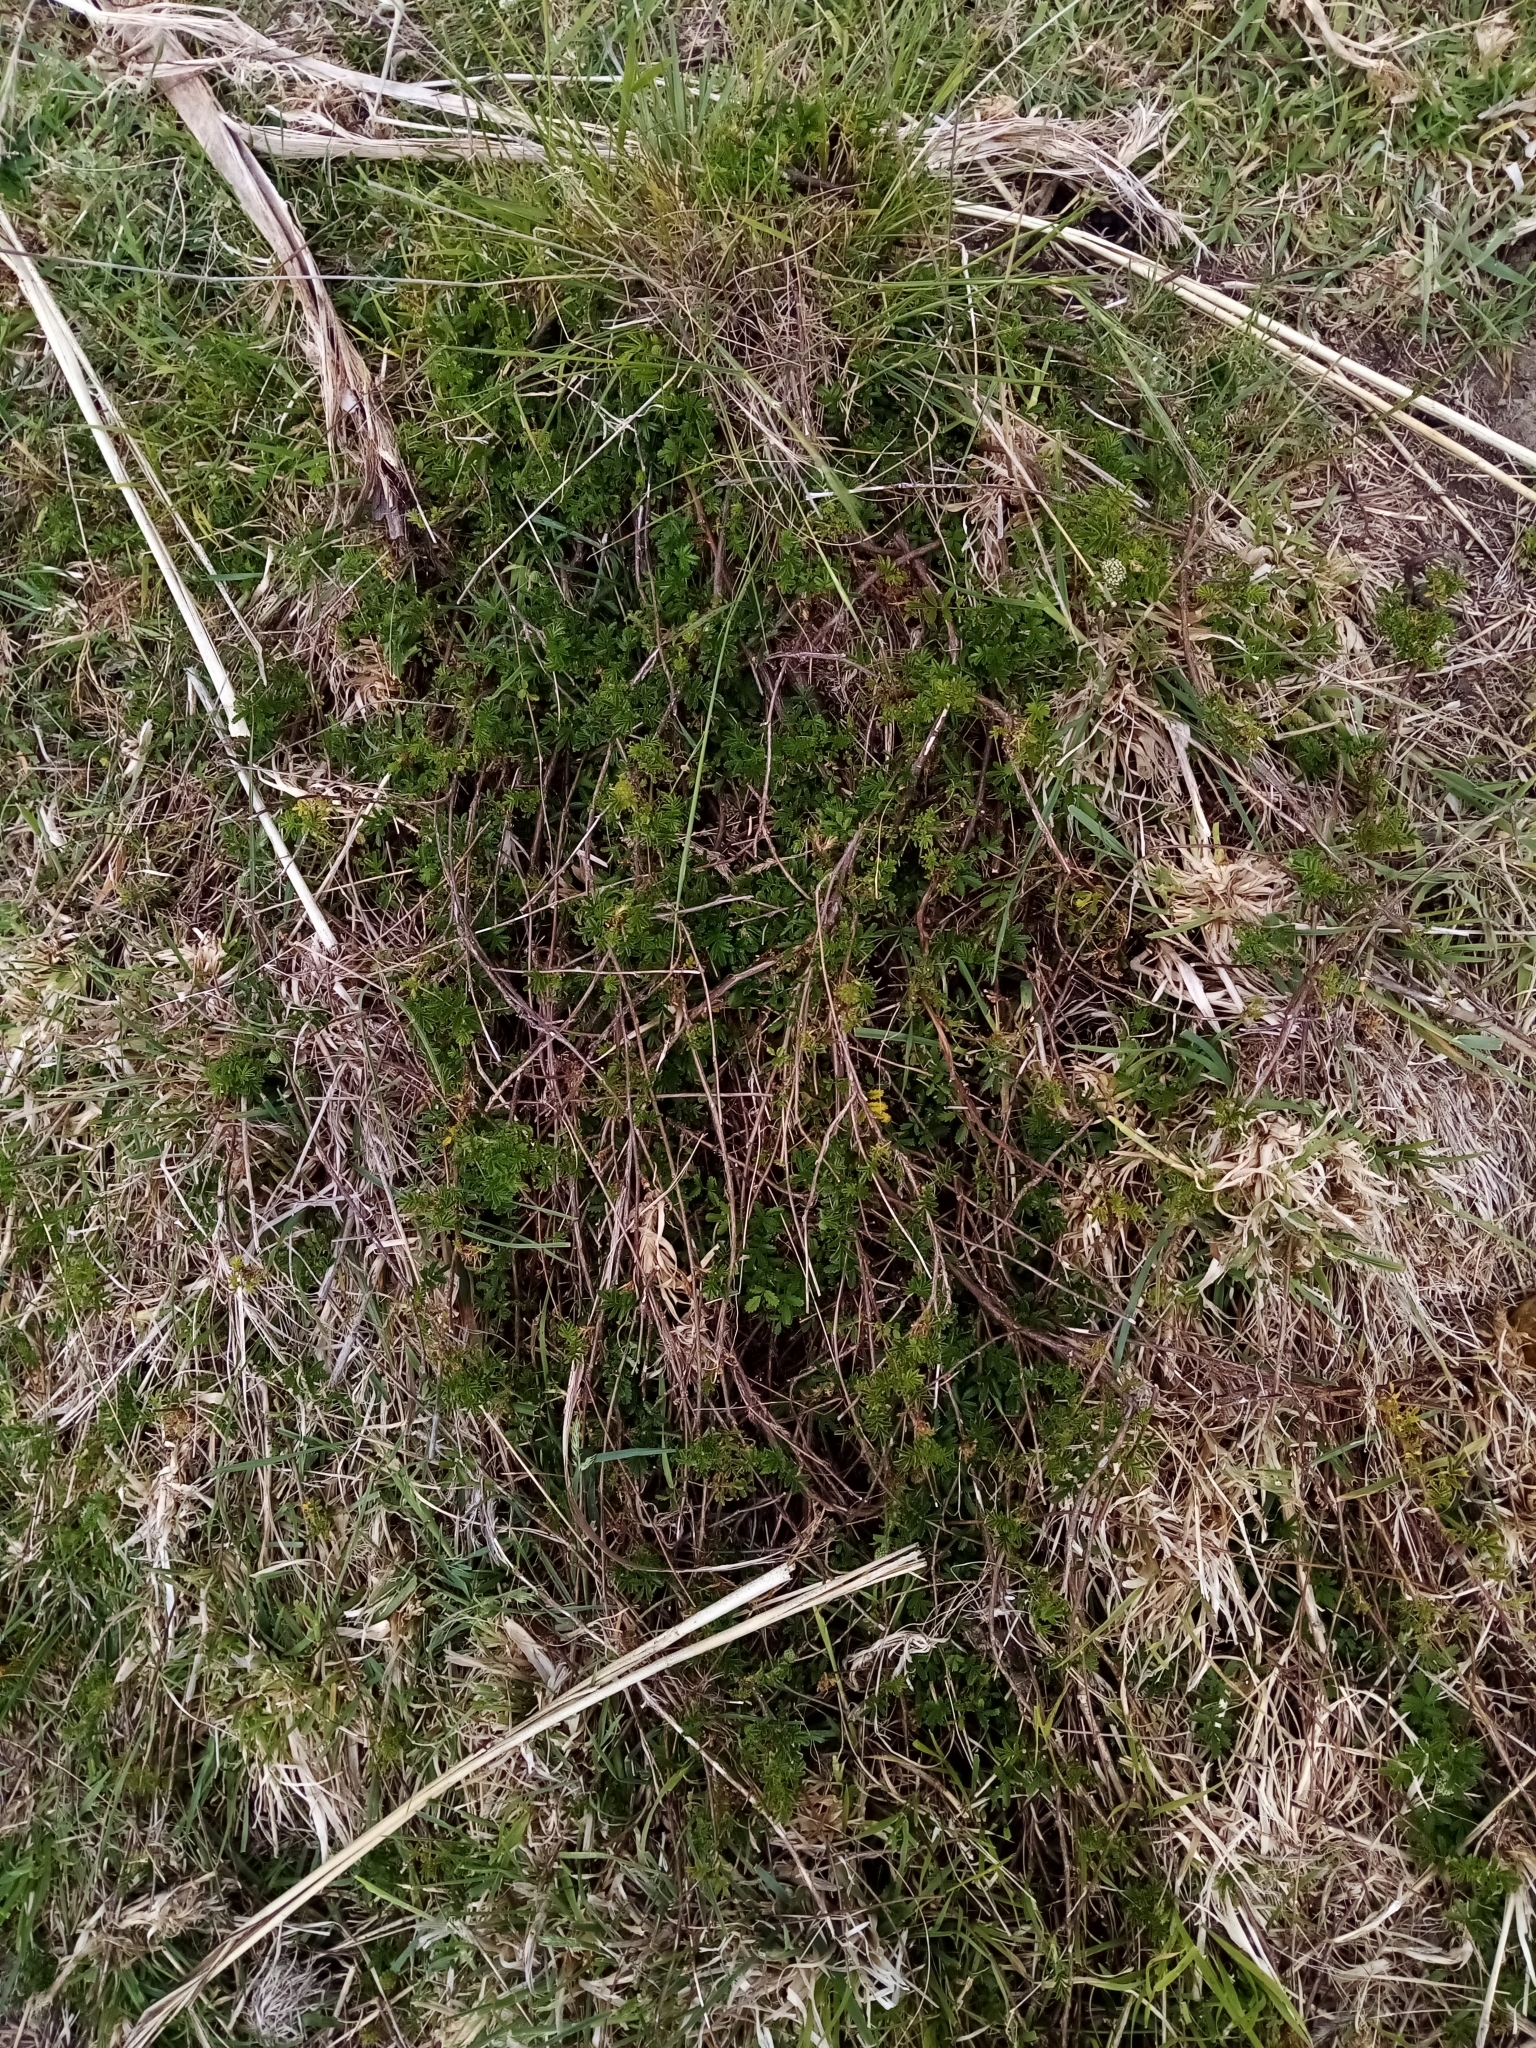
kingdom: Plantae
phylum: Tracheophyta
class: Magnoliopsida
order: Rosales
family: Rosaceae
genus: Acaena
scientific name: Acaena novae-zelandiae
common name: Pirri-pirri-bur
